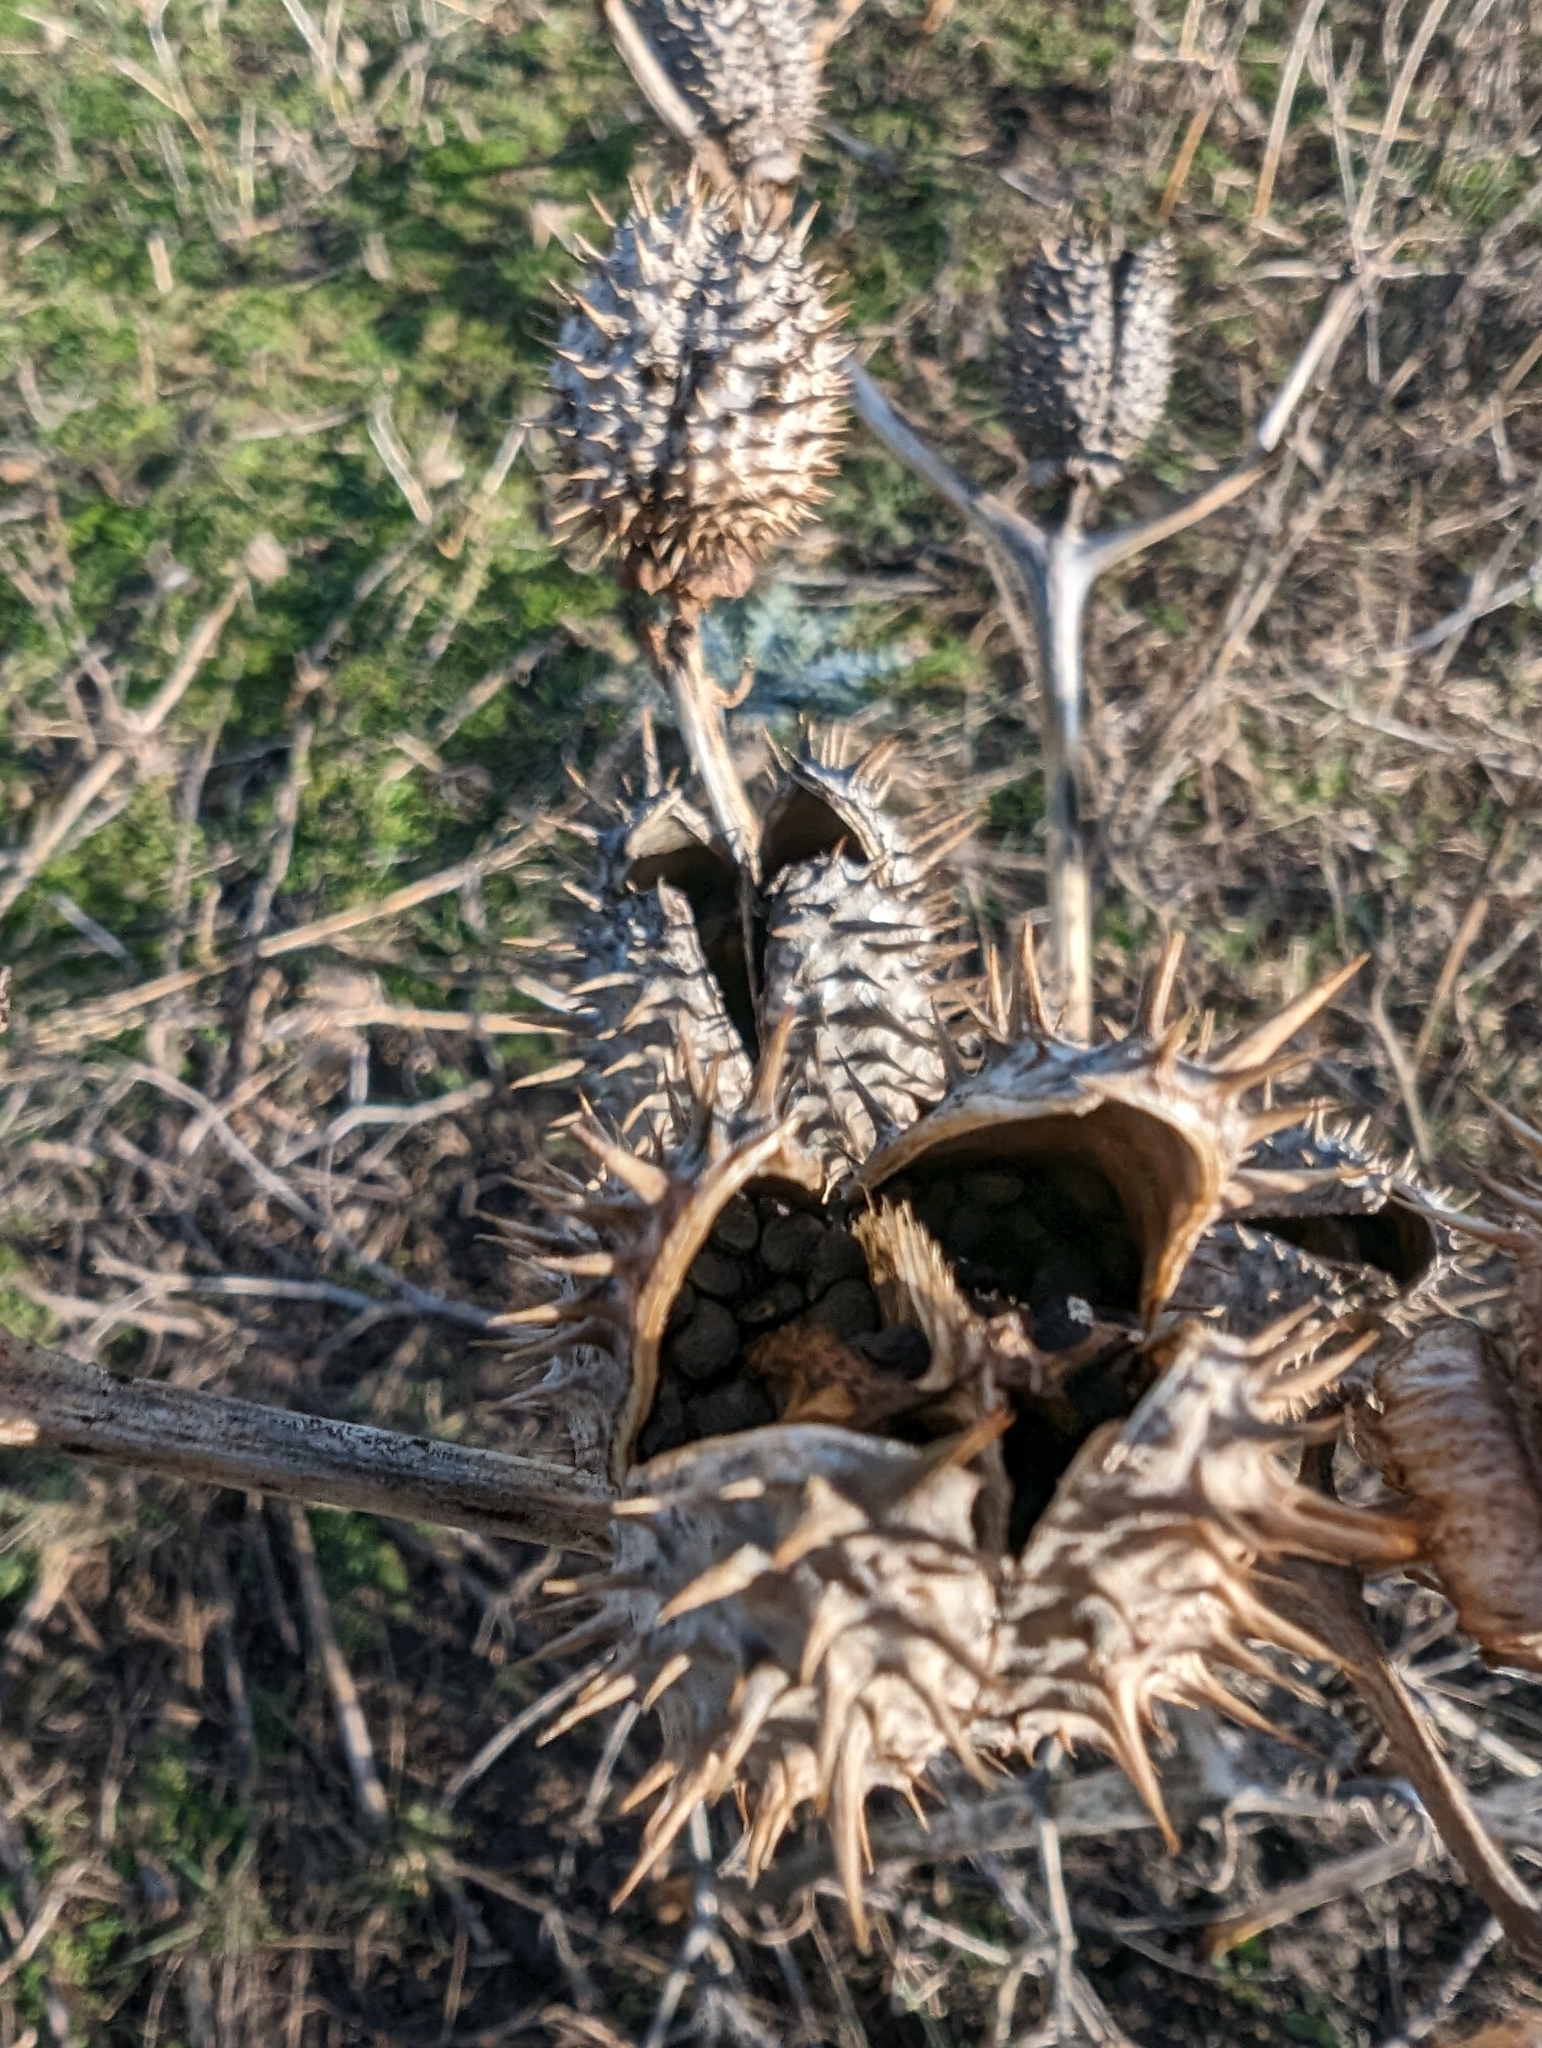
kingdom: Plantae
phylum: Tracheophyta
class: Magnoliopsida
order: Solanales
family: Solanaceae
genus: Datura
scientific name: Datura stramonium
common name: Thorn-apple
